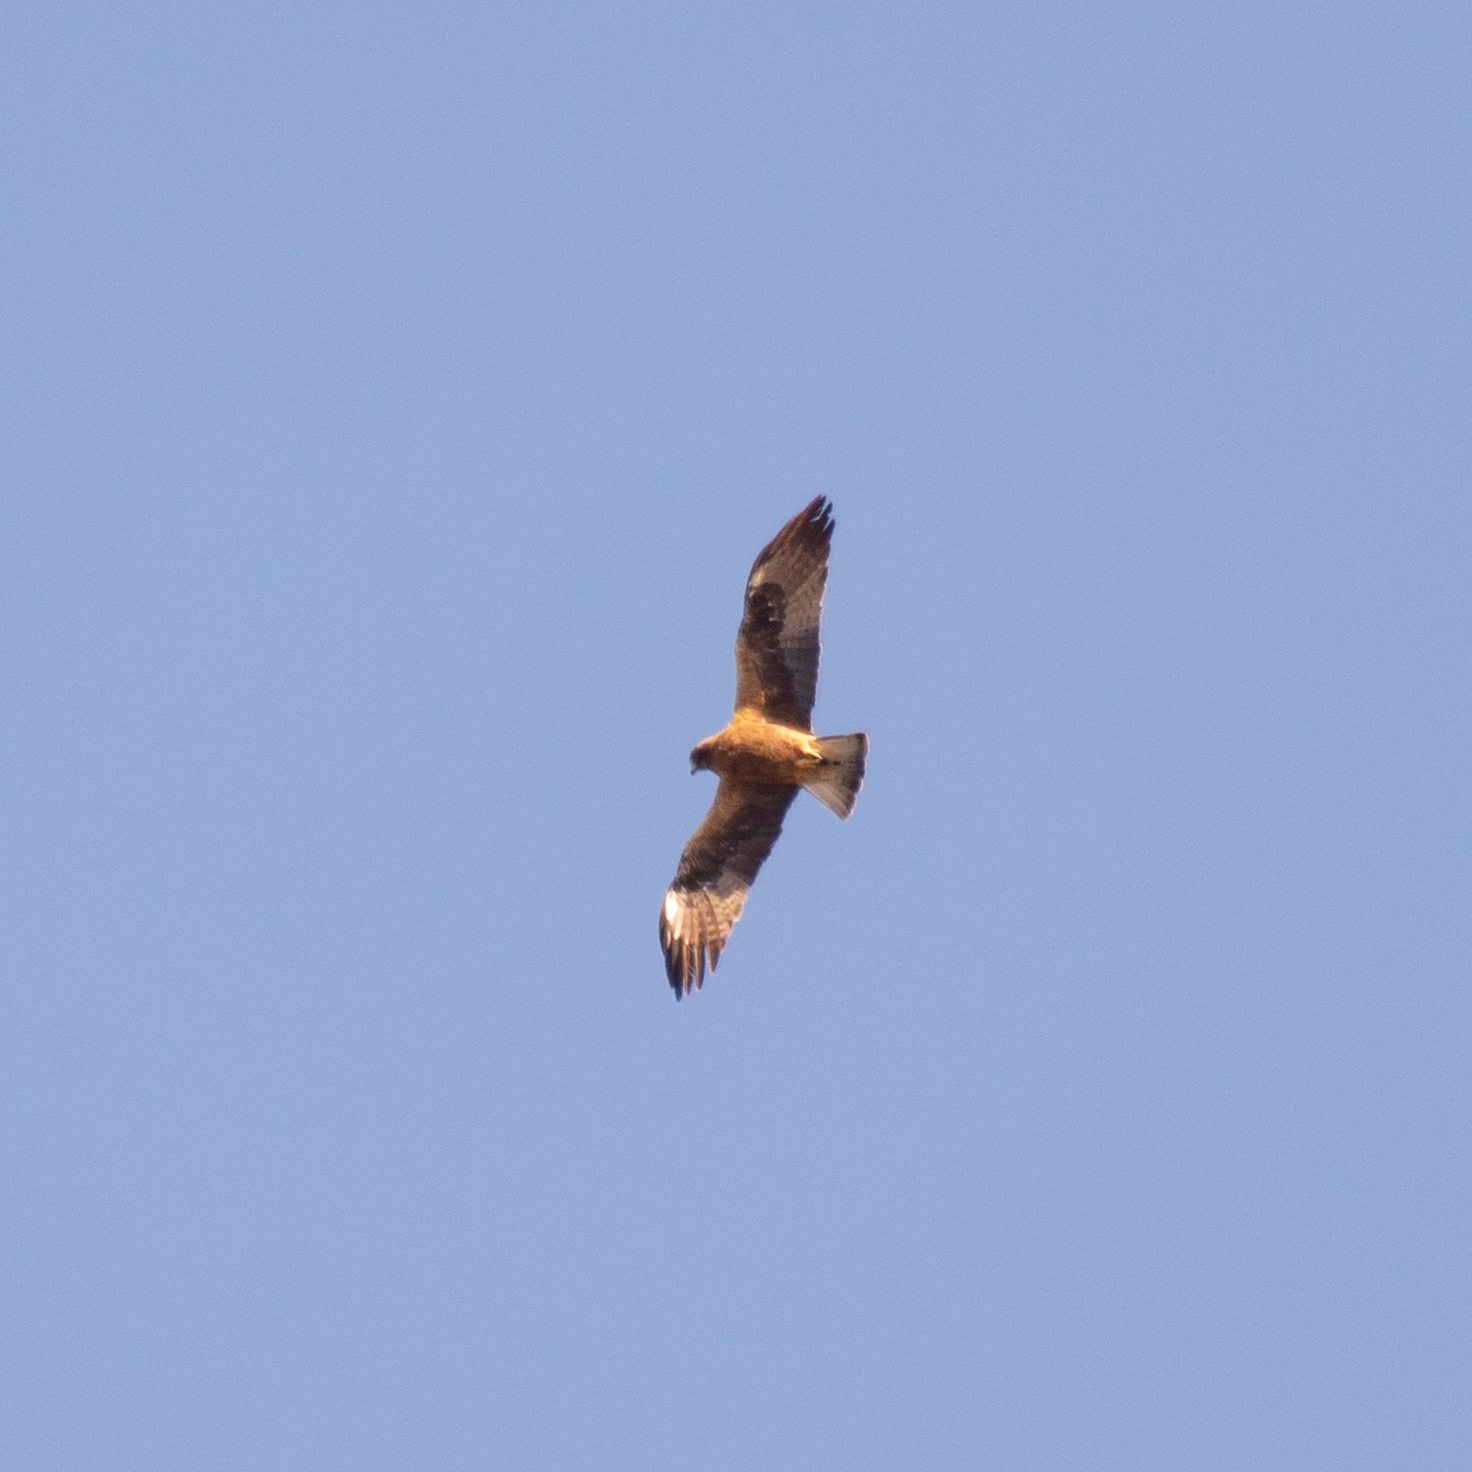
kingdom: Animalia
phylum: Chordata
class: Aves
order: Accipitriformes
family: Accipitridae
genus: Hieraaetus
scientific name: Hieraaetus pennatus
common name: Booted eagle
